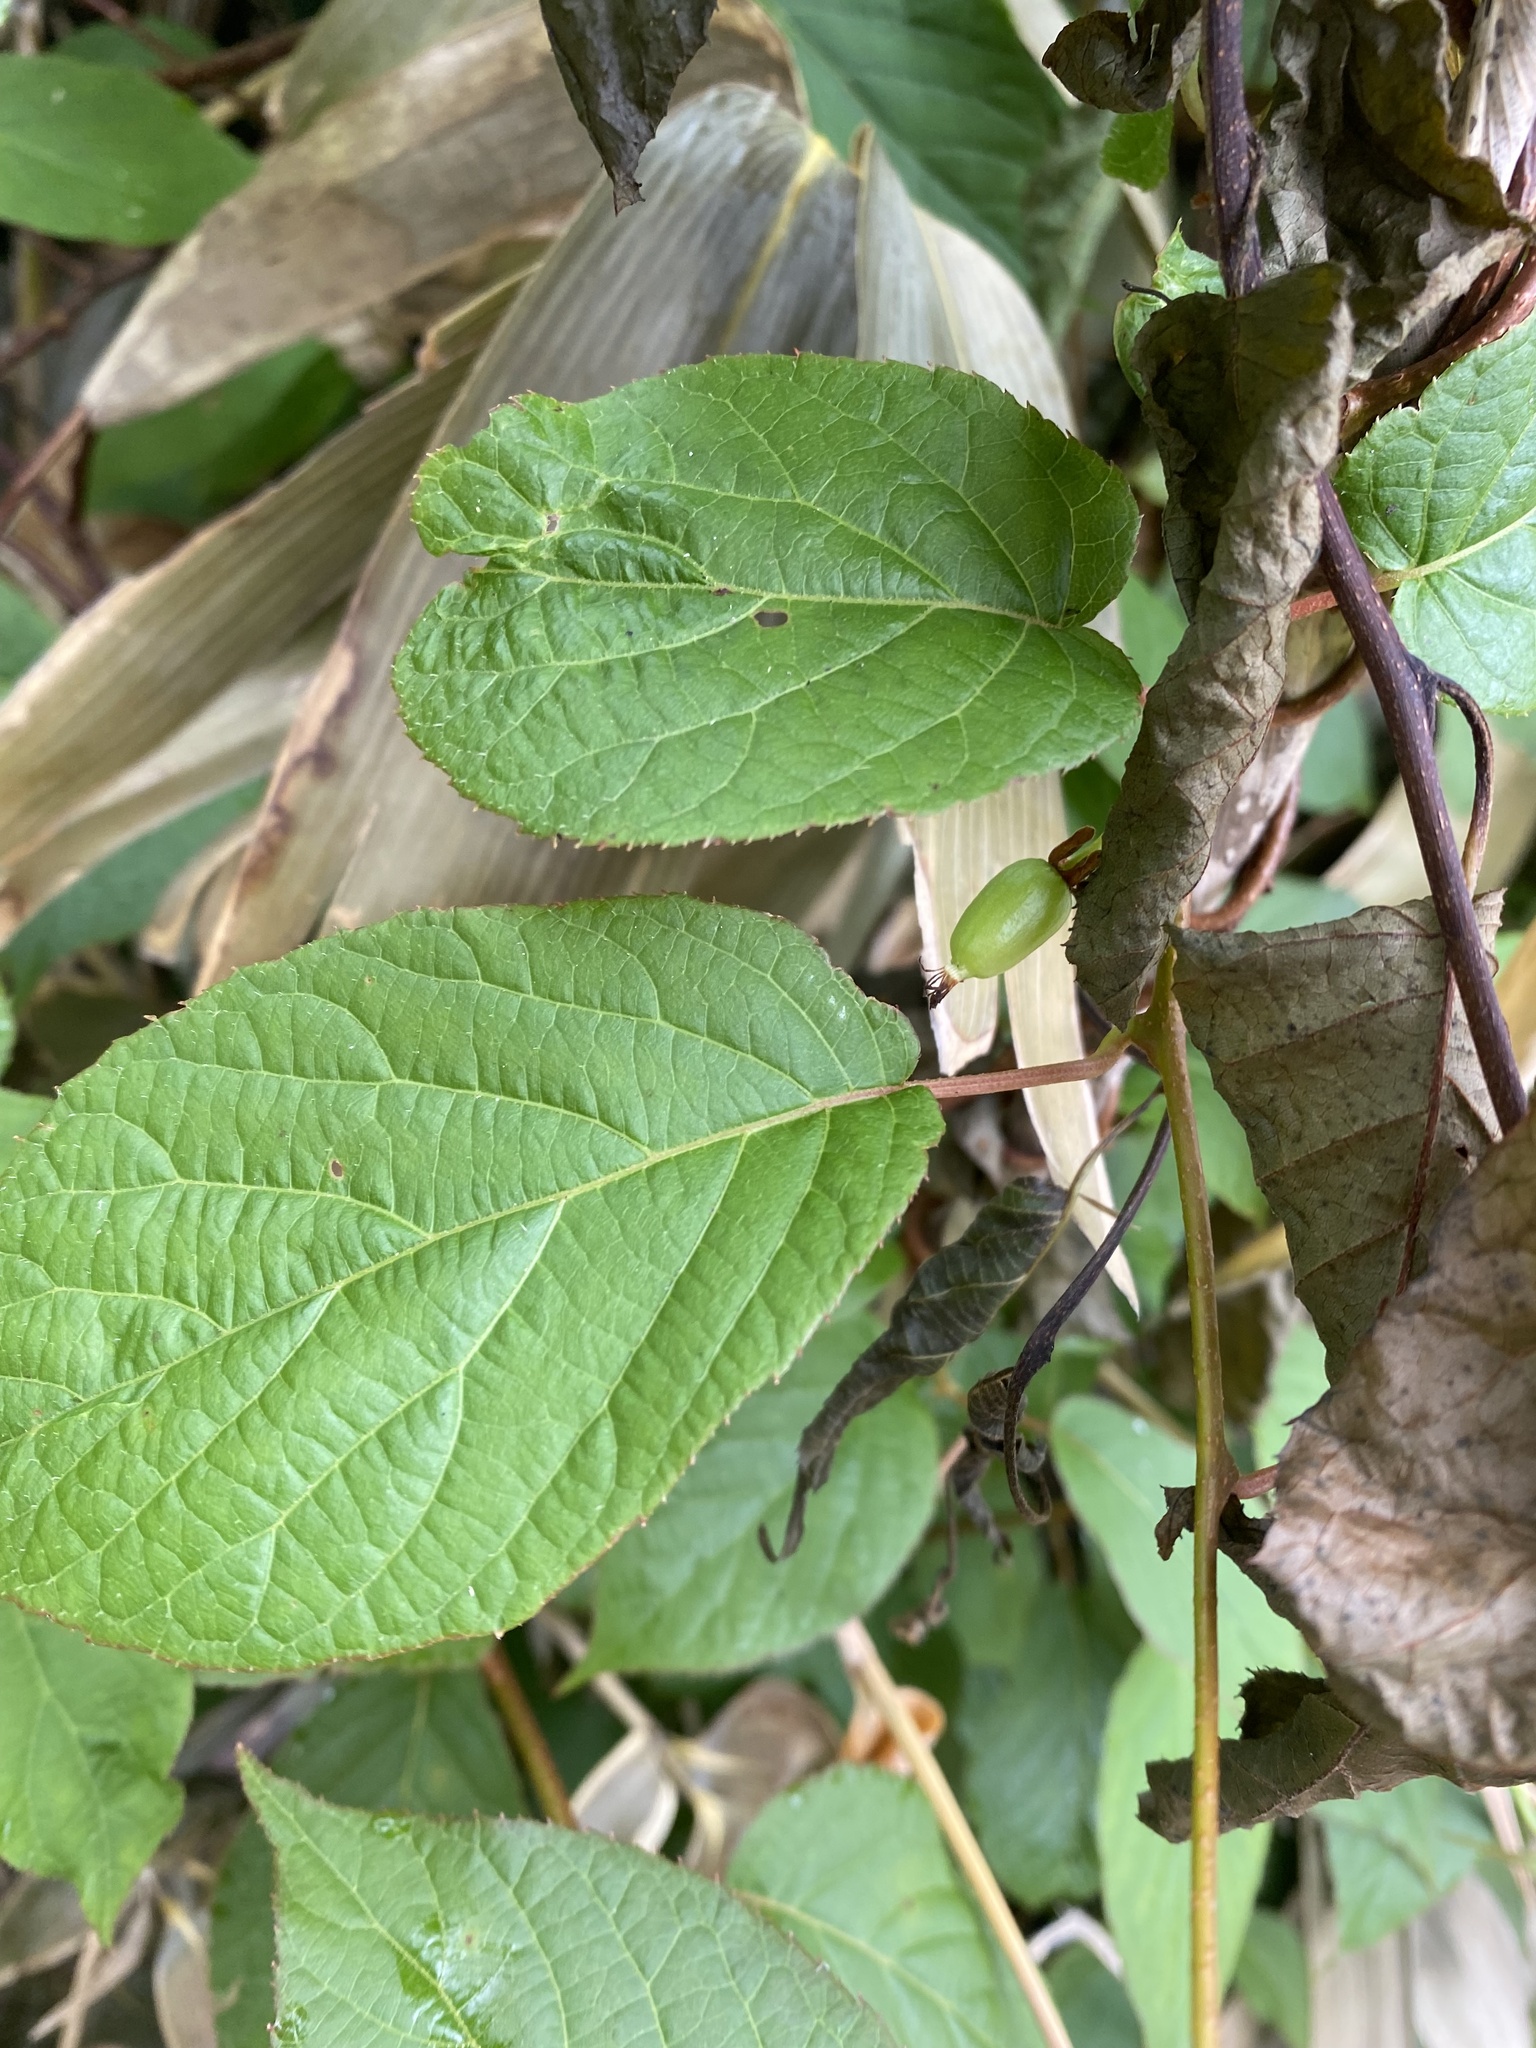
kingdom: Plantae
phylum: Tracheophyta
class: Magnoliopsida
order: Ericales
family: Actinidiaceae
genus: Actinidia
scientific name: Actinidia kolomikta
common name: Arctic beauty kiwi
